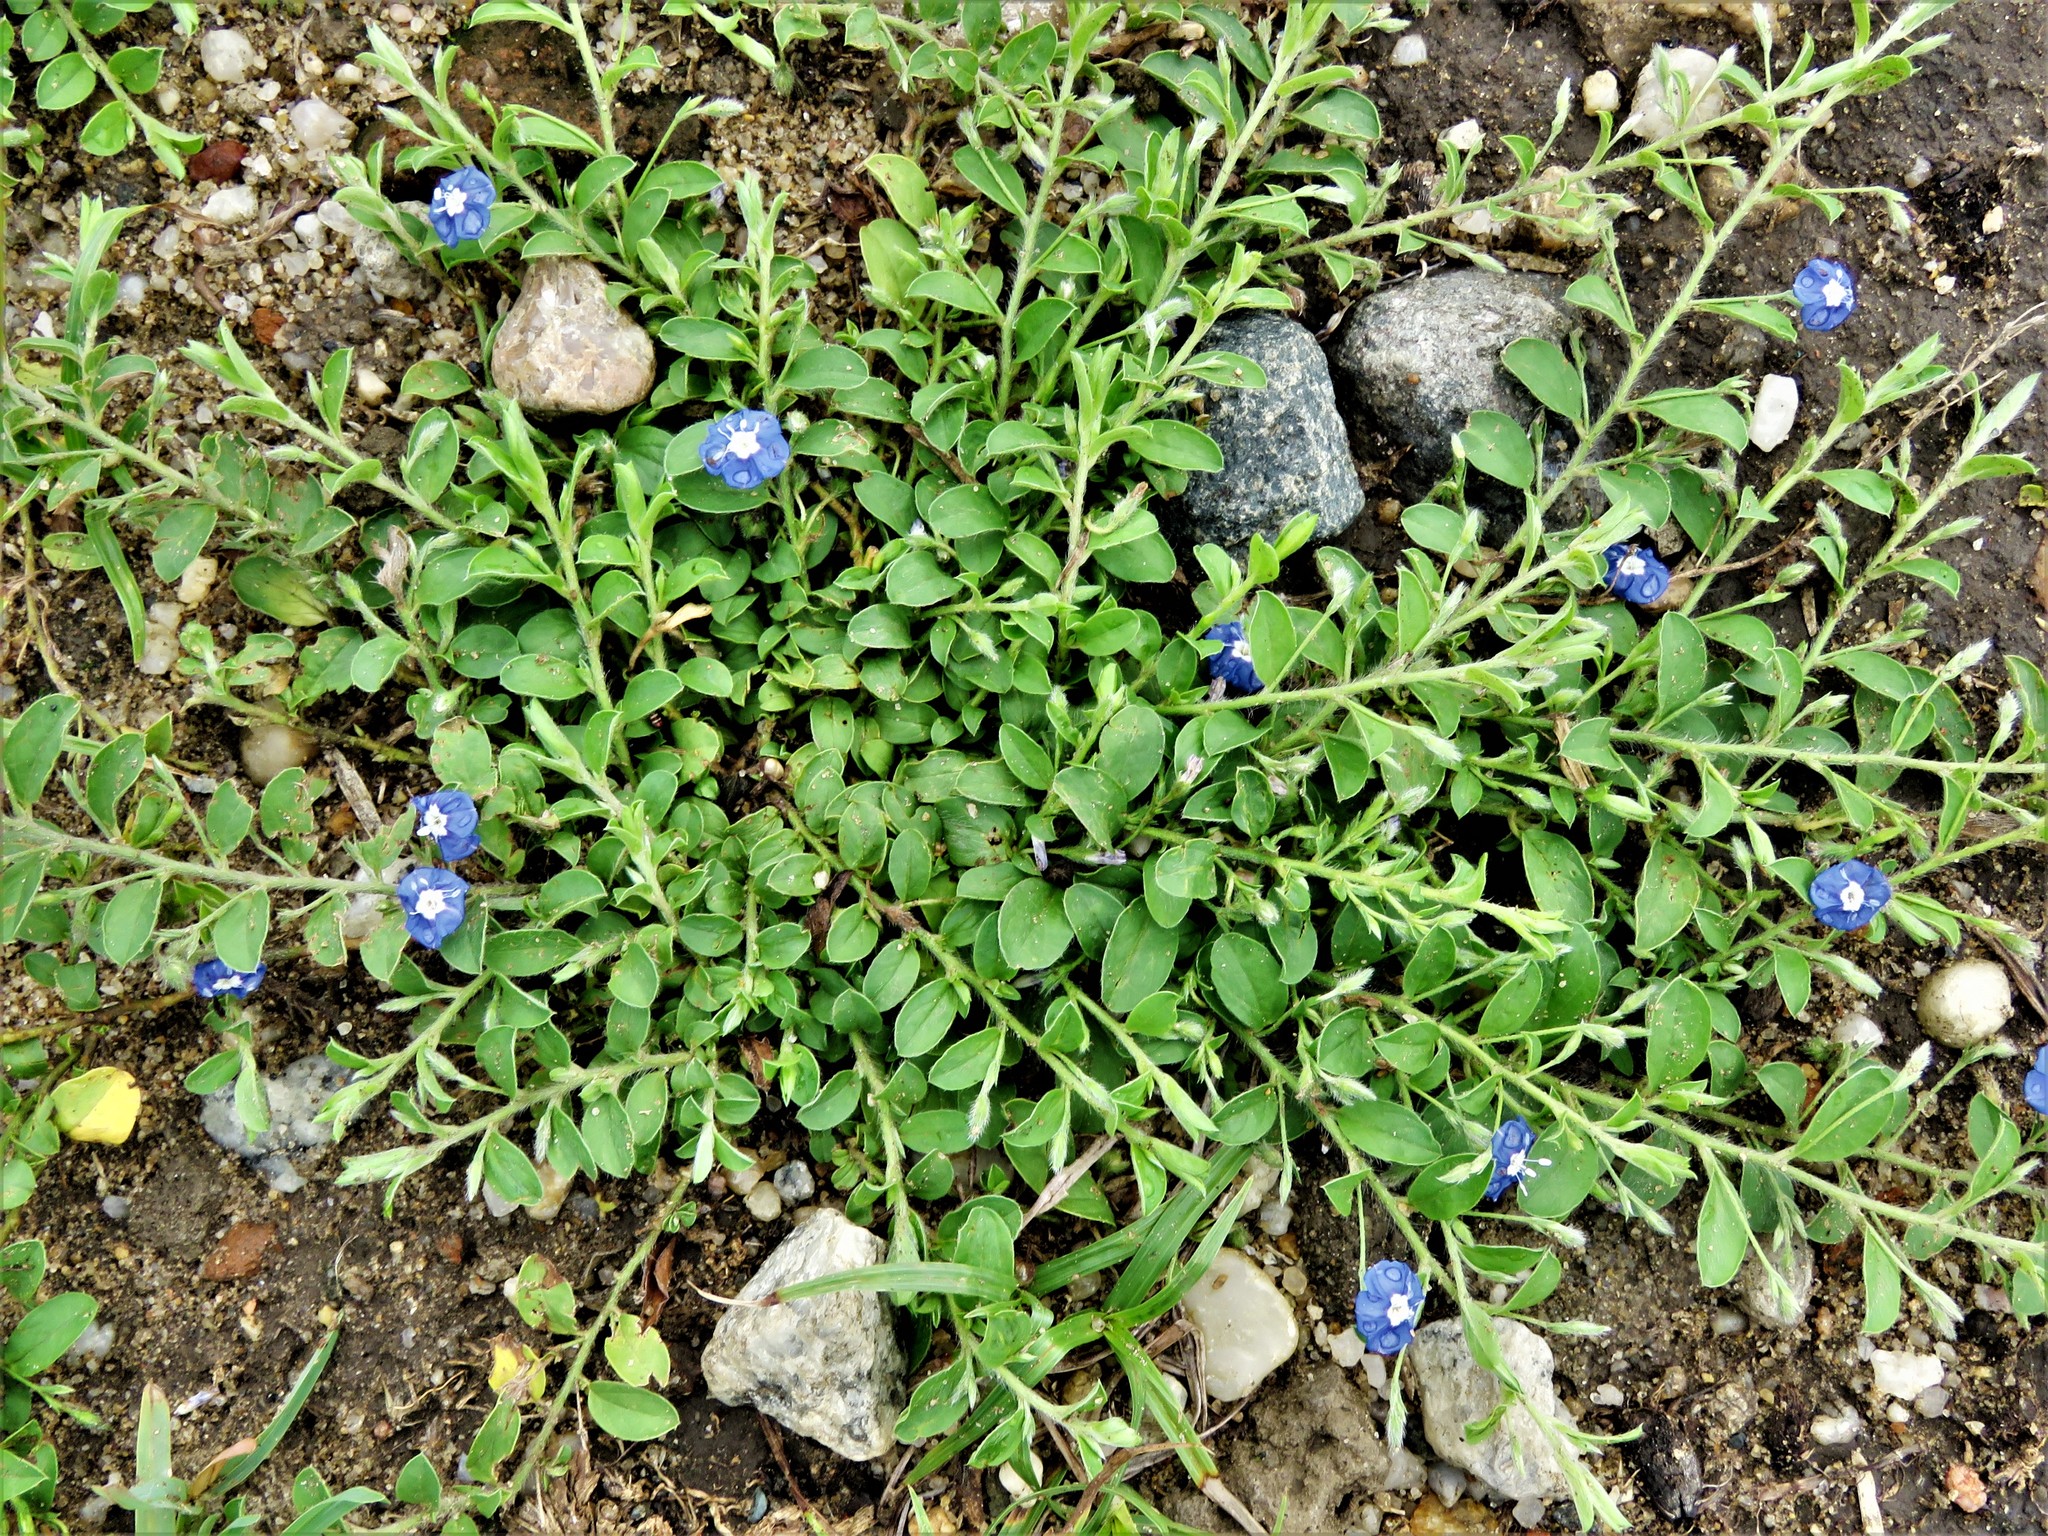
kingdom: Plantae
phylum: Tracheophyta
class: Magnoliopsida
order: Solanales
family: Convolvulaceae
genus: Evolvulus
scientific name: Evolvulus alsinoides
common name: Slender dwarf morning-glory
